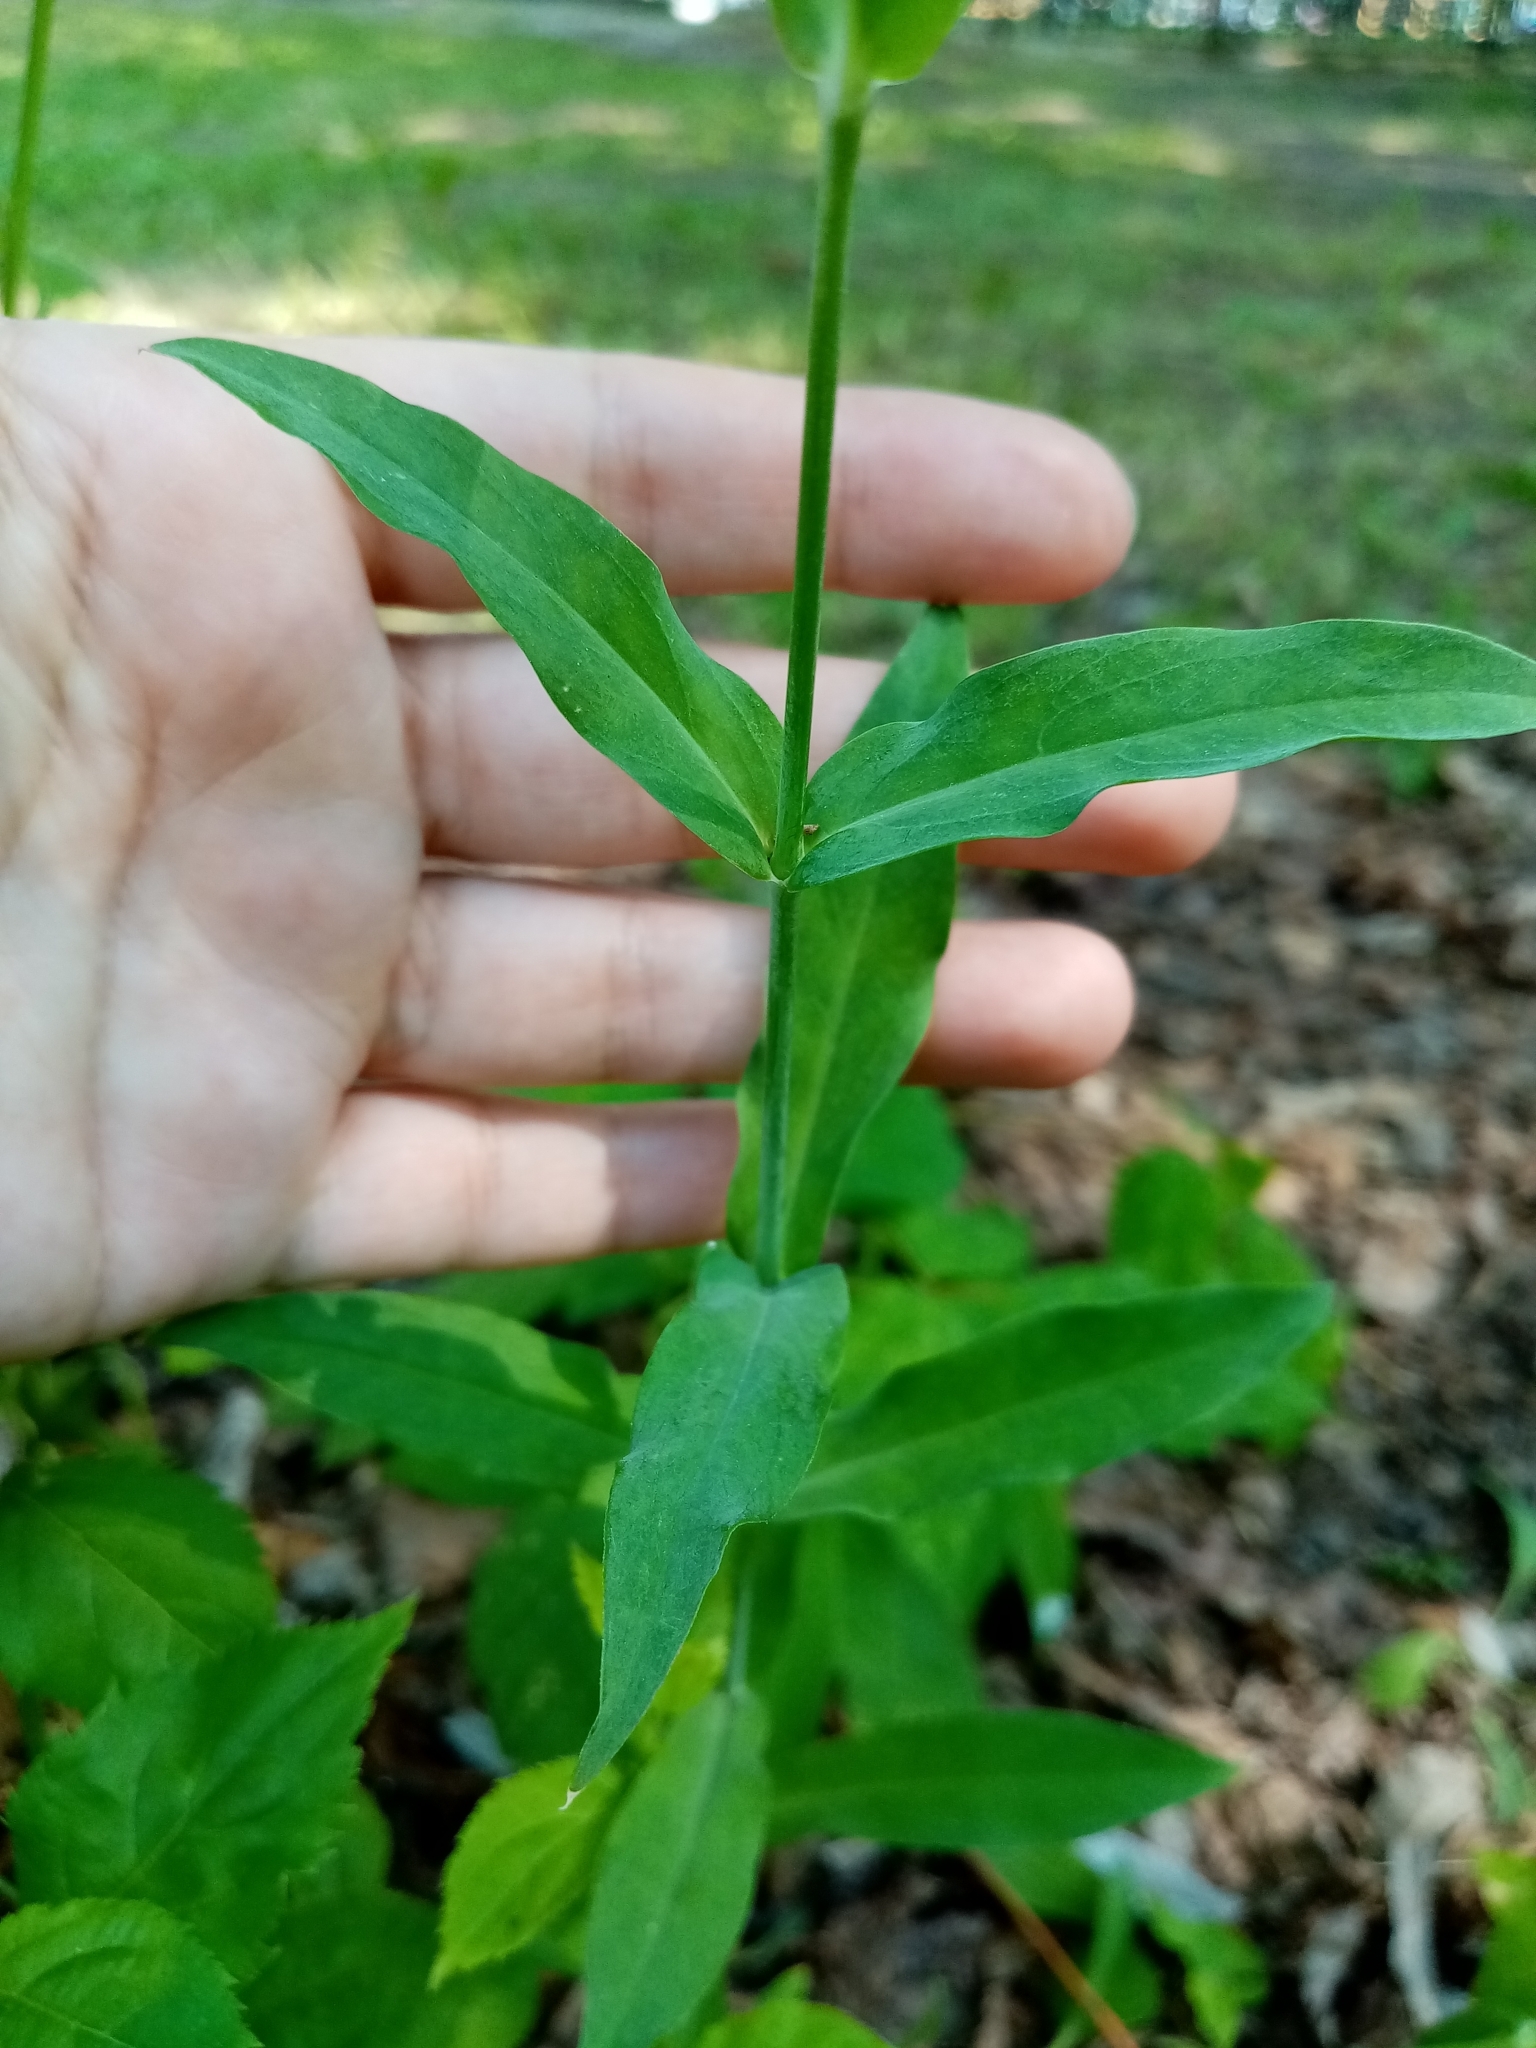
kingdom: Plantae
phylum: Tracheophyta
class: Magnoliopsida
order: Caryophyllales
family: Caryophyllaceae
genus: Silene
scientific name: Silene vulgaris
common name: Bladder campion
